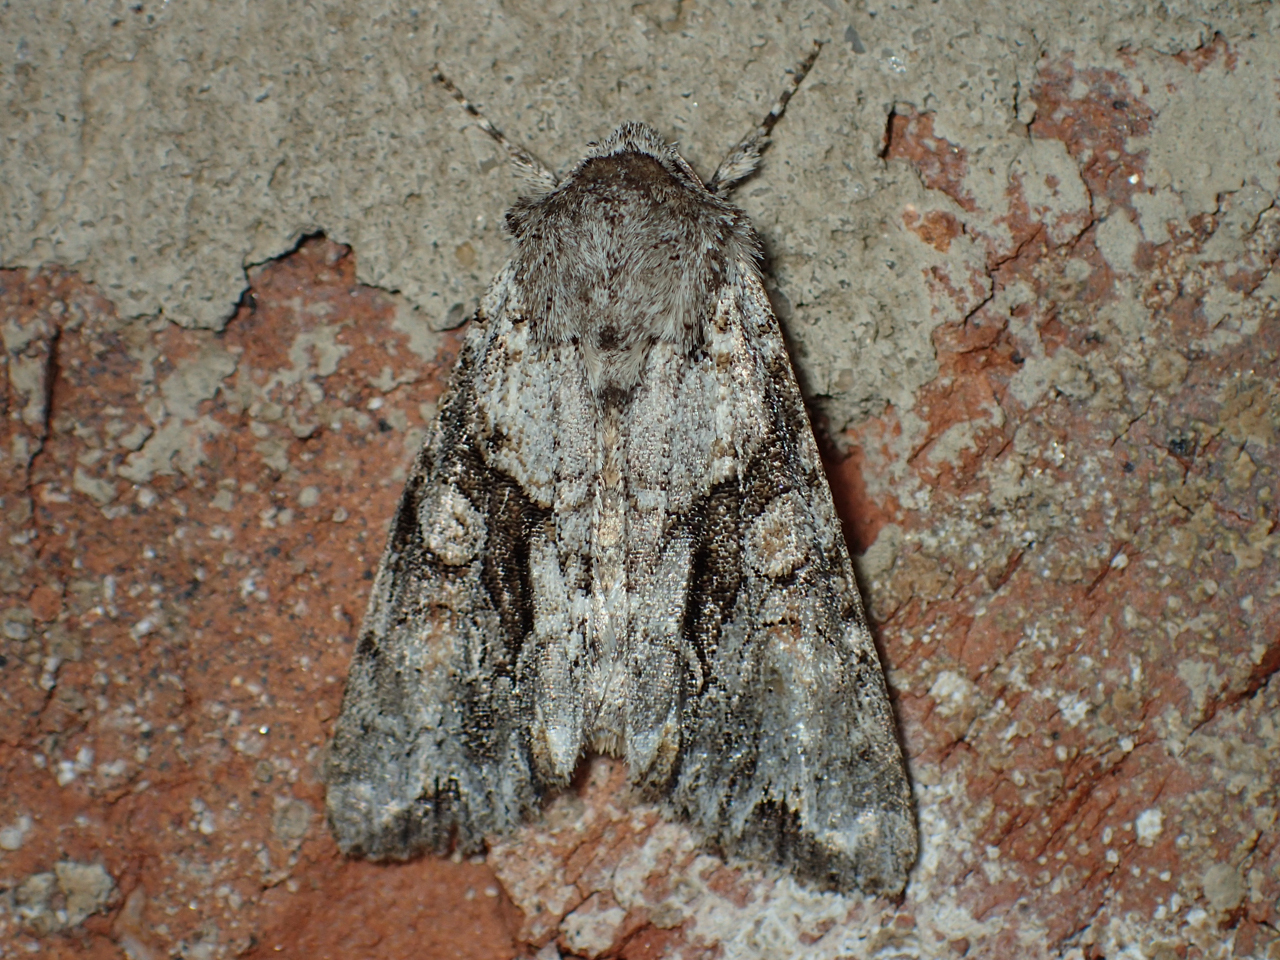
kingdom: Animalia
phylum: Arthropoda
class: Insecta
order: Lepidoptera
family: Noctuidae
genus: Achatia
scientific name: Achatia distincta
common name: Distinct quaker
